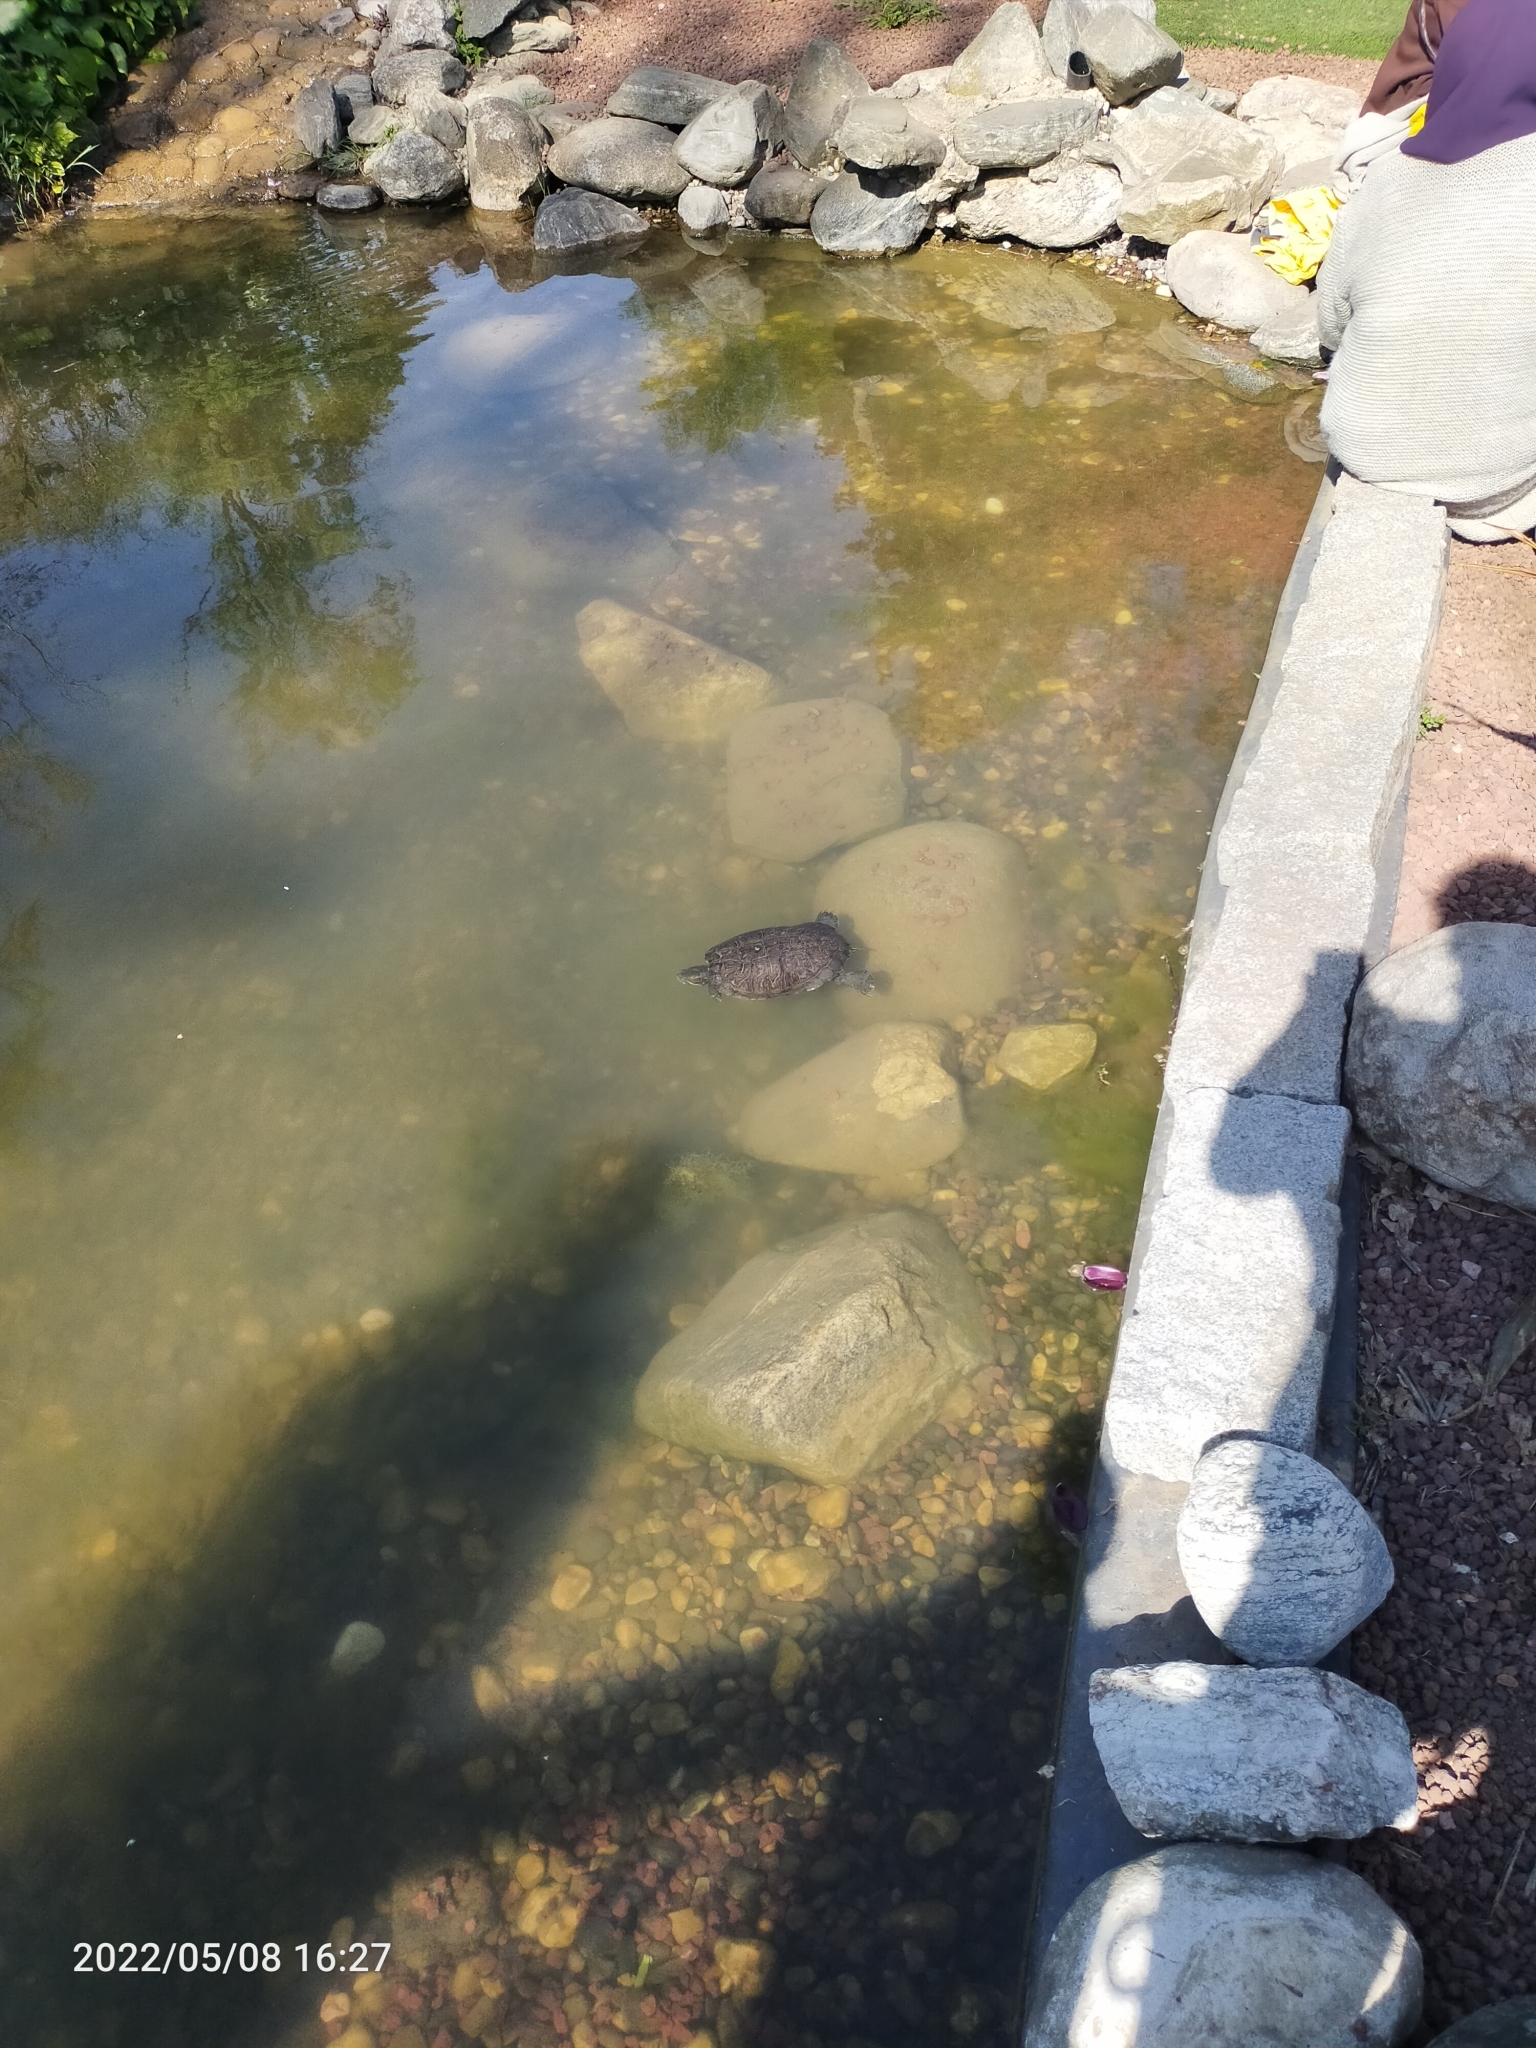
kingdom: Animalia
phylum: Chordata
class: Testudines
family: Emydidae
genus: Trachemys
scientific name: Trachemys scripta
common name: Slider
